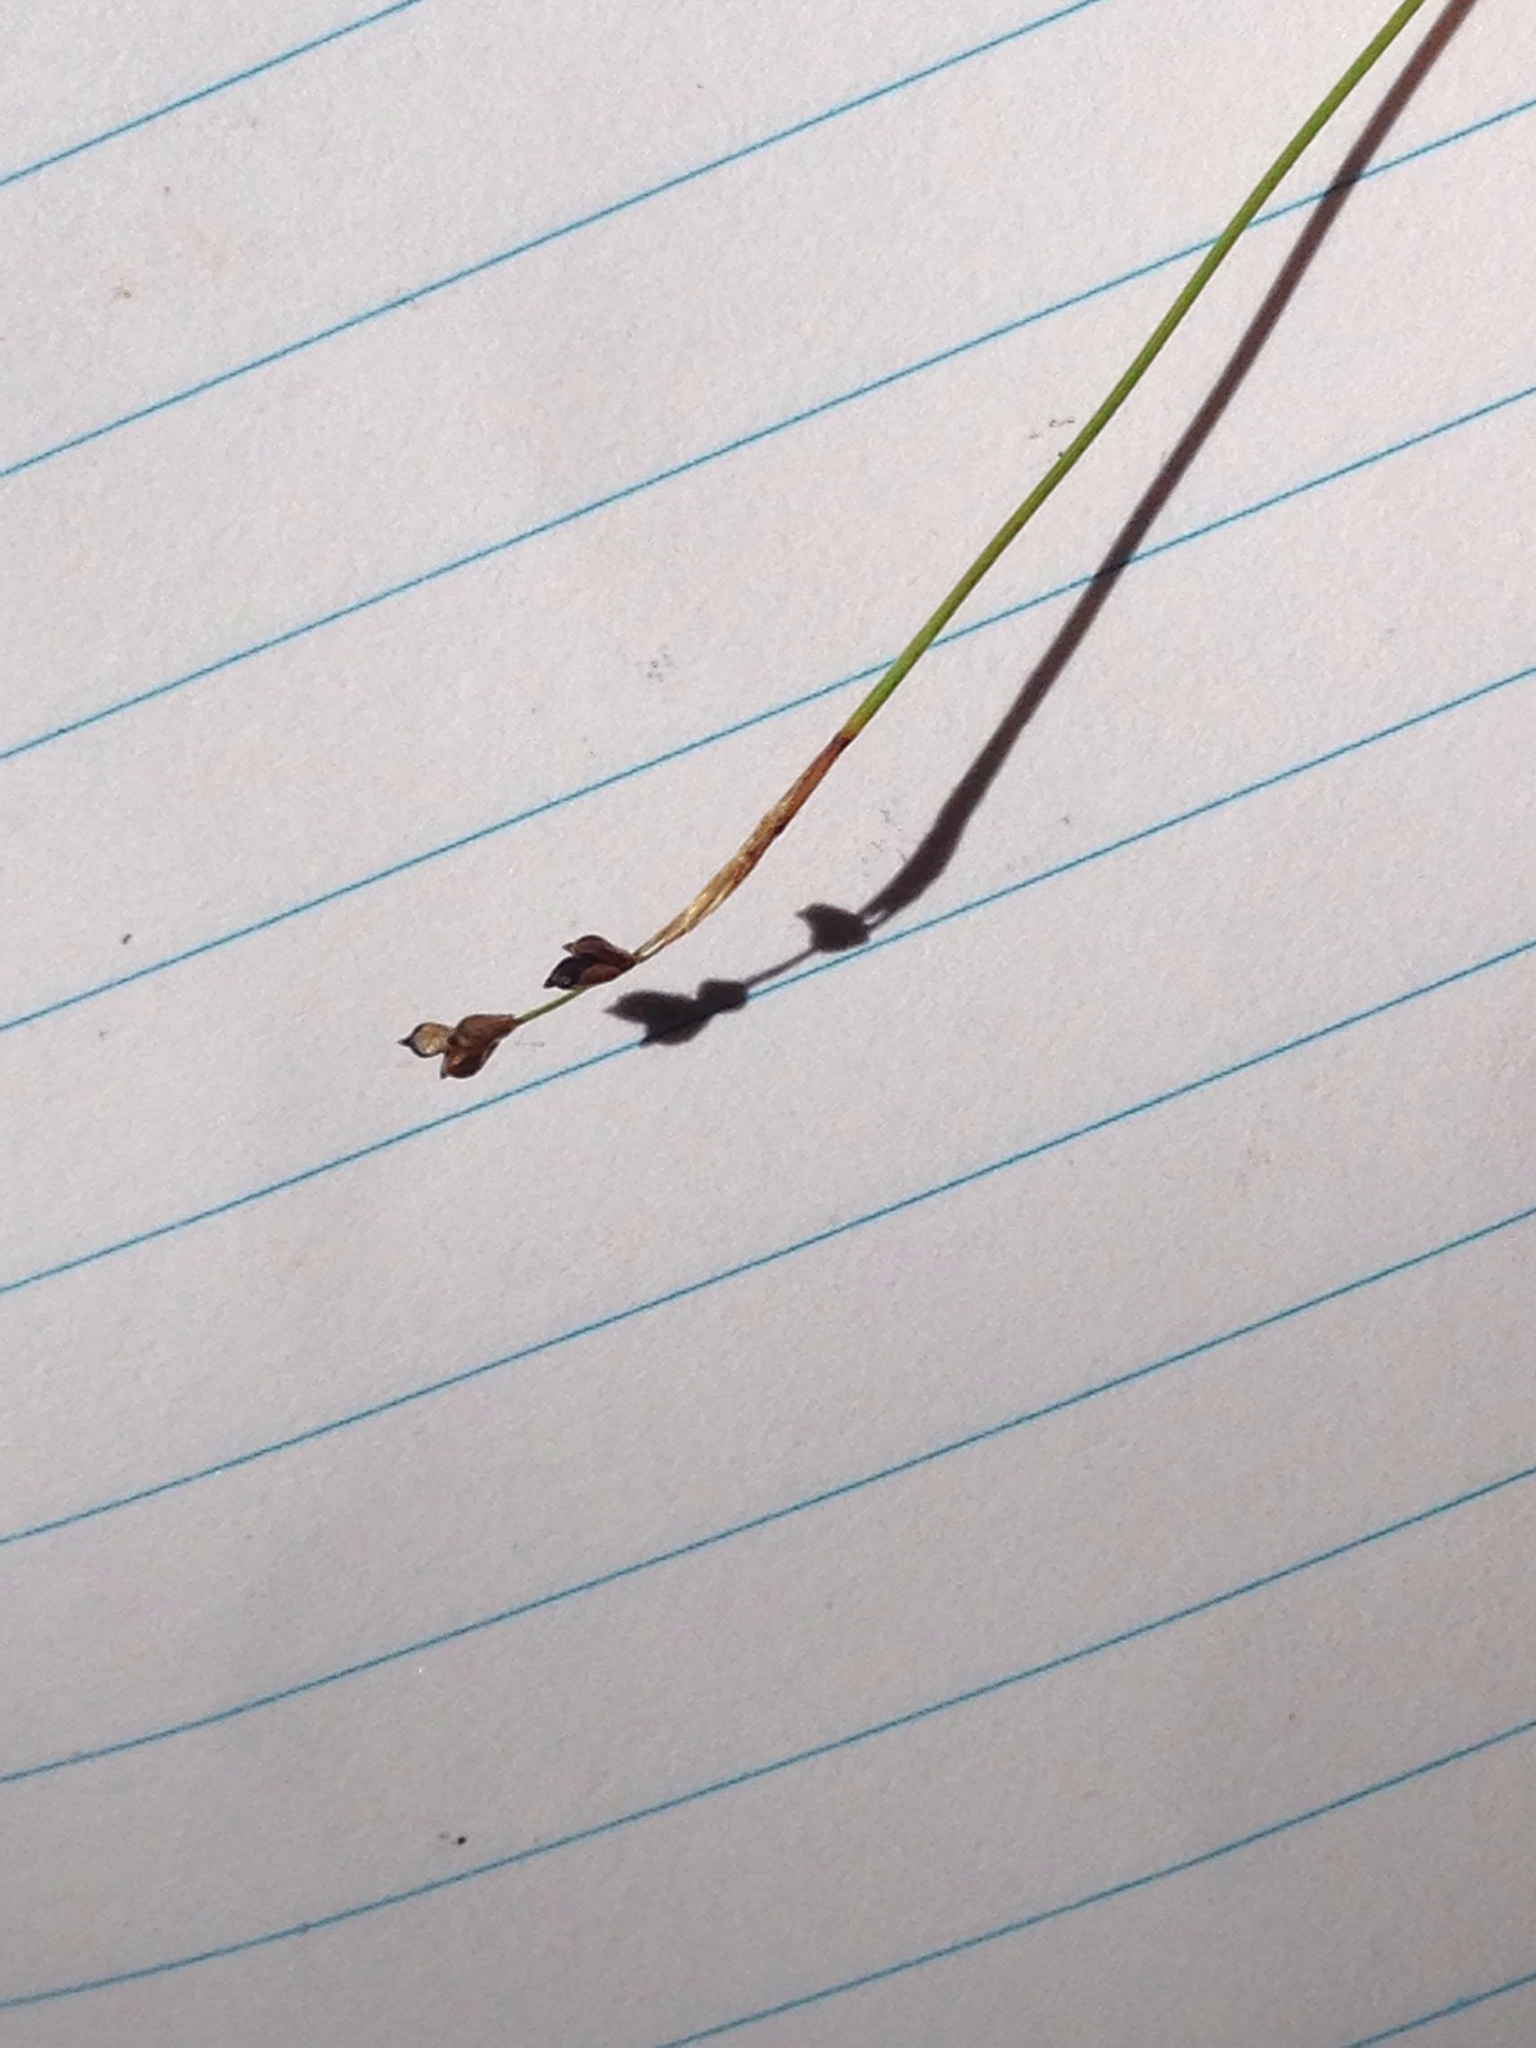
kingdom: Plantae
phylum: Tracheophyta
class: Liliopsida
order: Poales
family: Cyperaceae
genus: Carex
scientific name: Carex eburnea
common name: Bristle-leaved sedge
